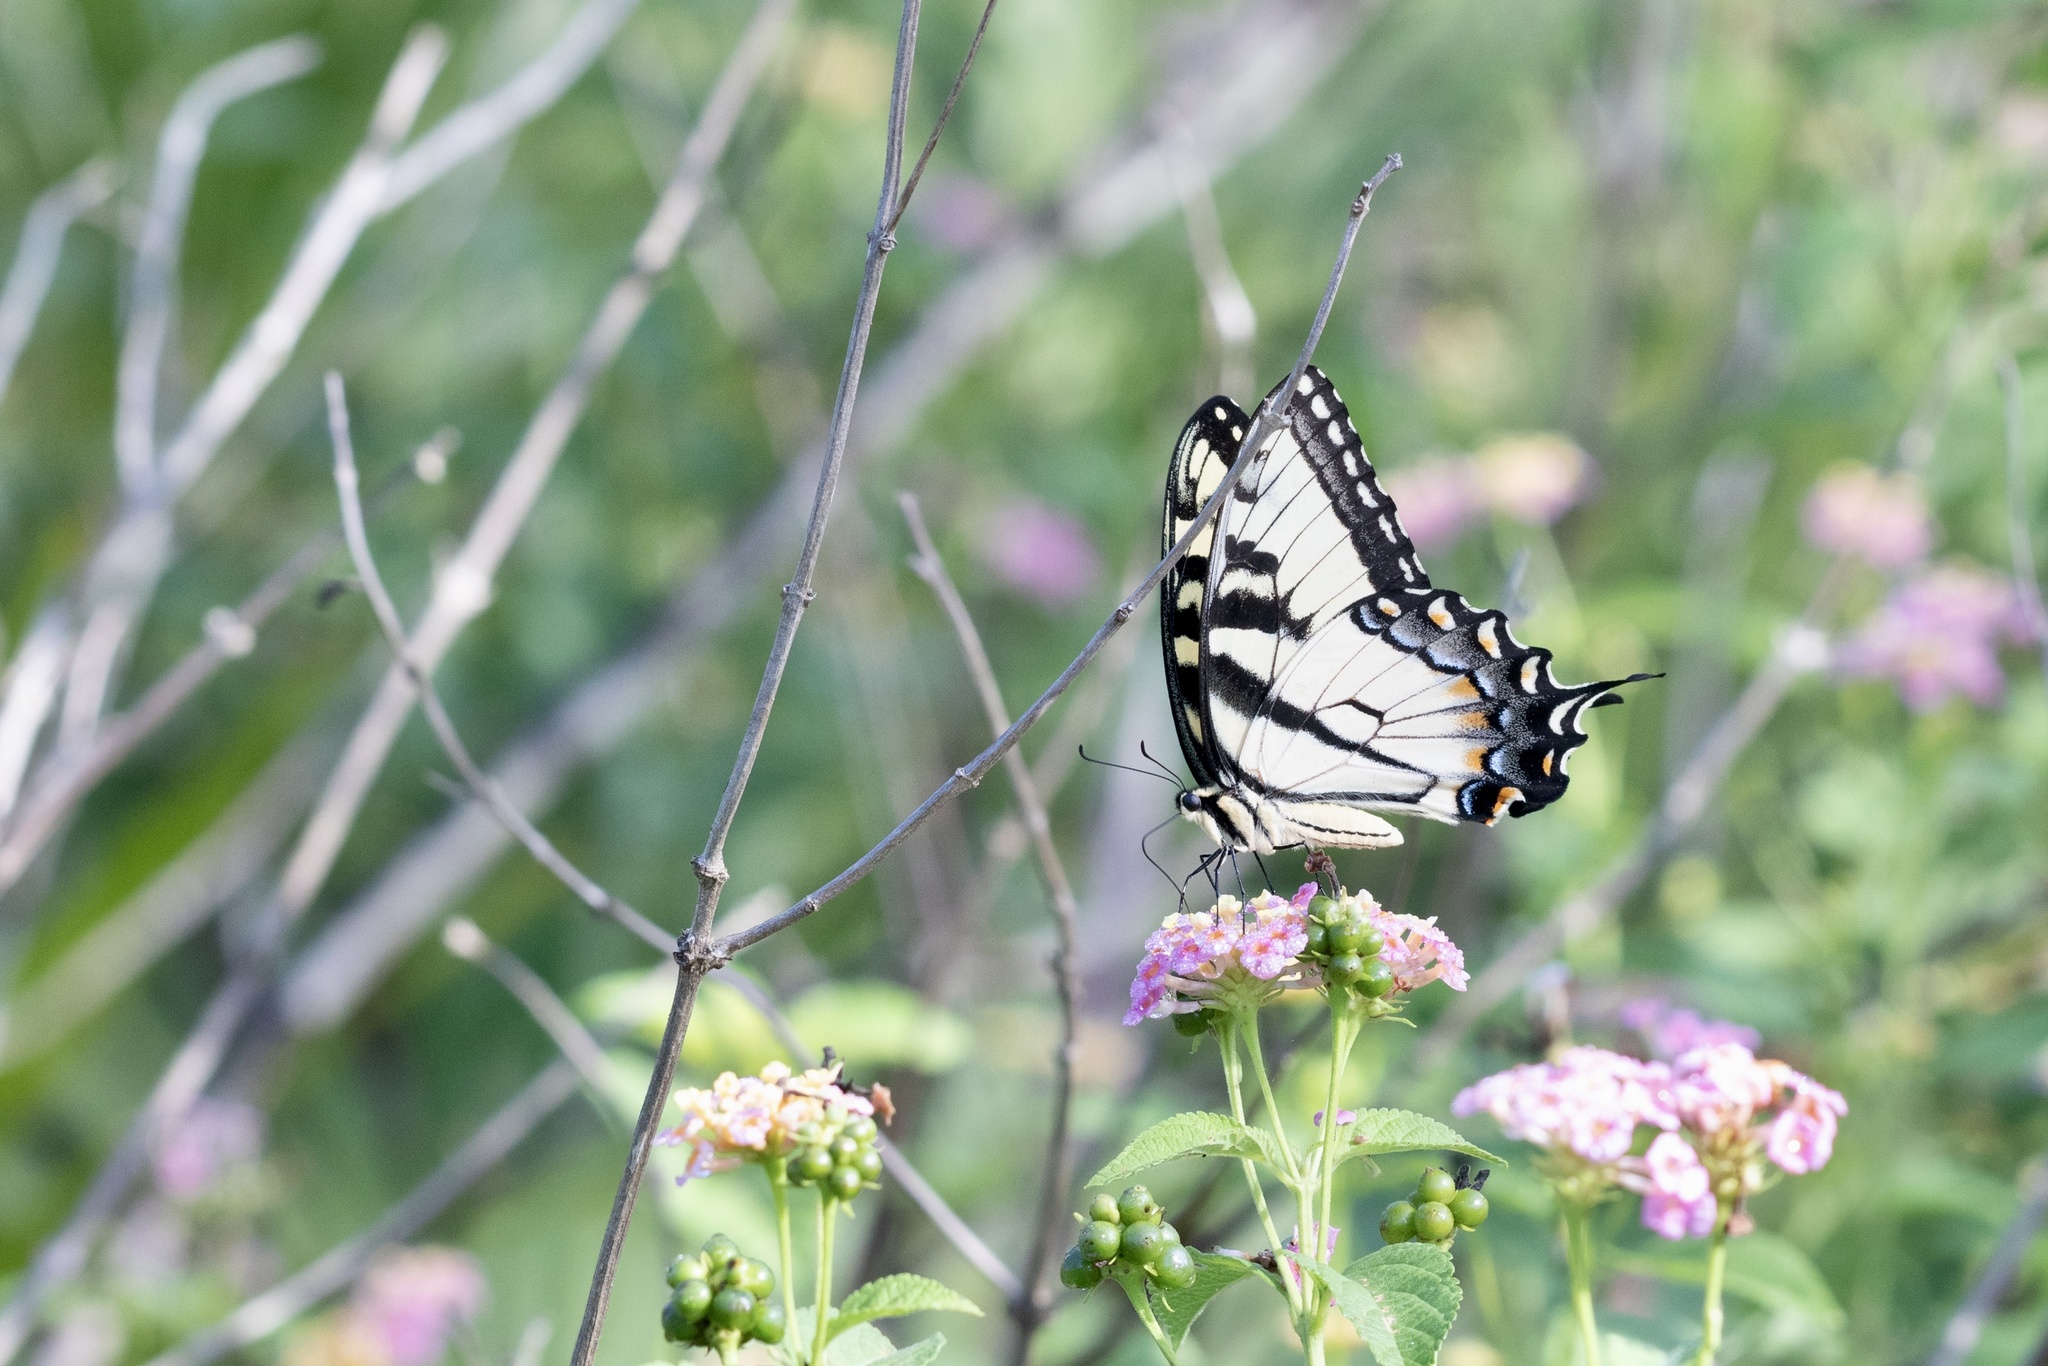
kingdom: Animalia
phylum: Arthropoda
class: Insecta
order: Lepidoptera
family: Papilionidae
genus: Papilio
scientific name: Papilio glaucus
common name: Tiger swallowtail
